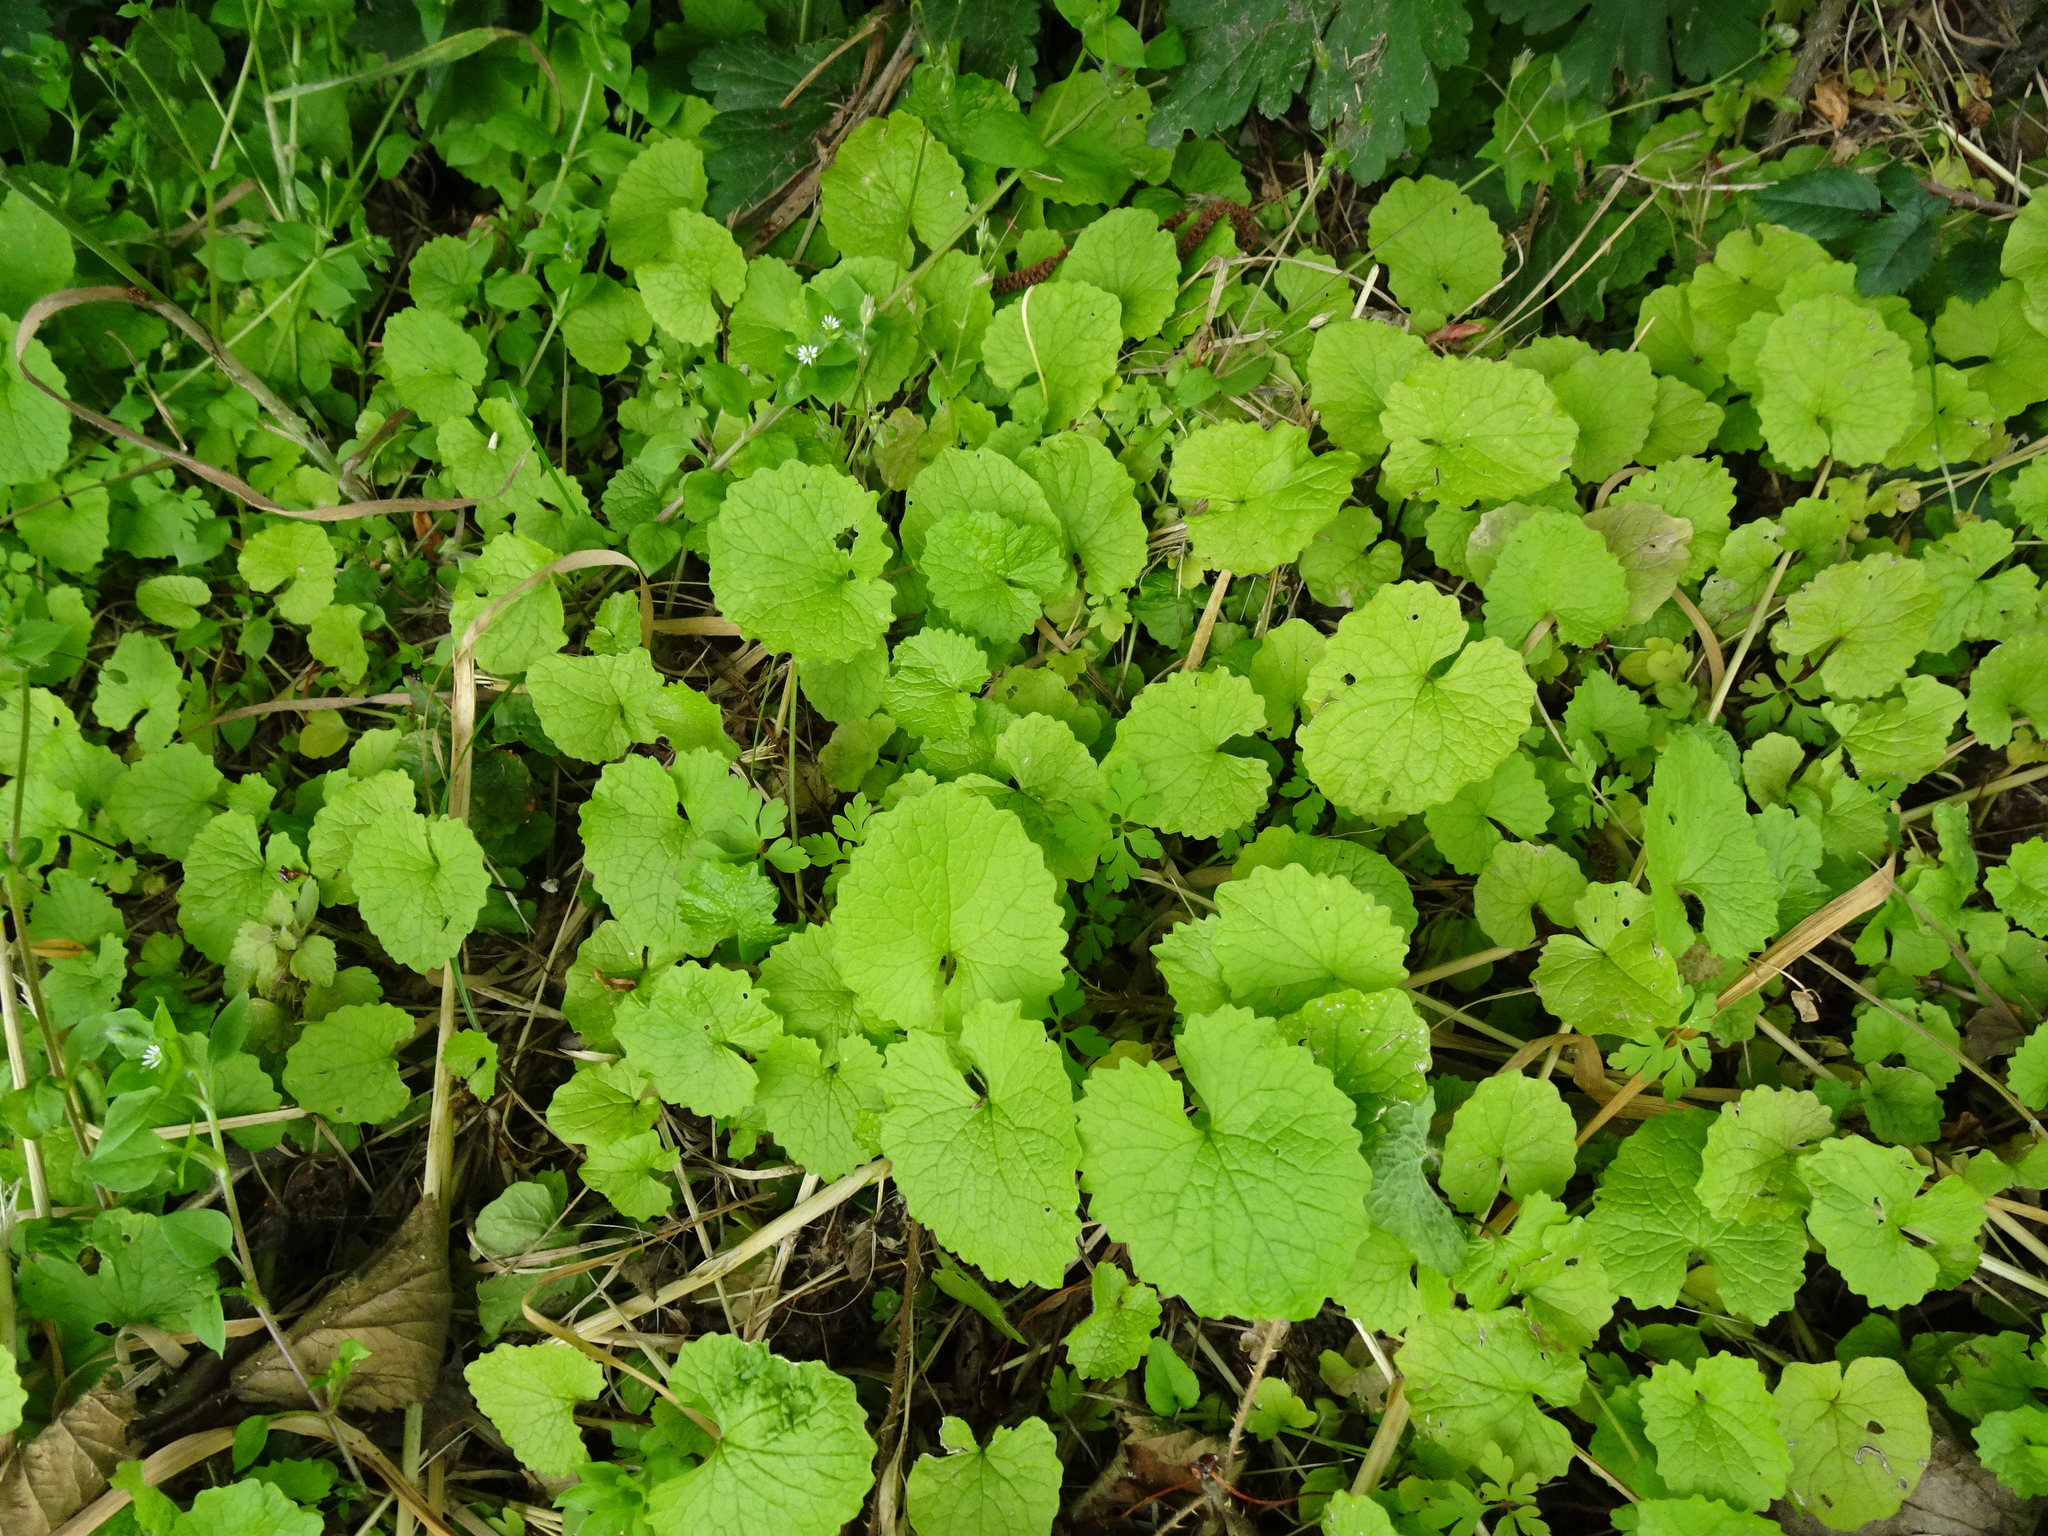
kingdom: Plantae
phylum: Tracheophyta
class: Magnoliopsida
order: Brassicales
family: Brassicaceae
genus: Alliaria
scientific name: Alliaria petiolata
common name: Garlic mustard
